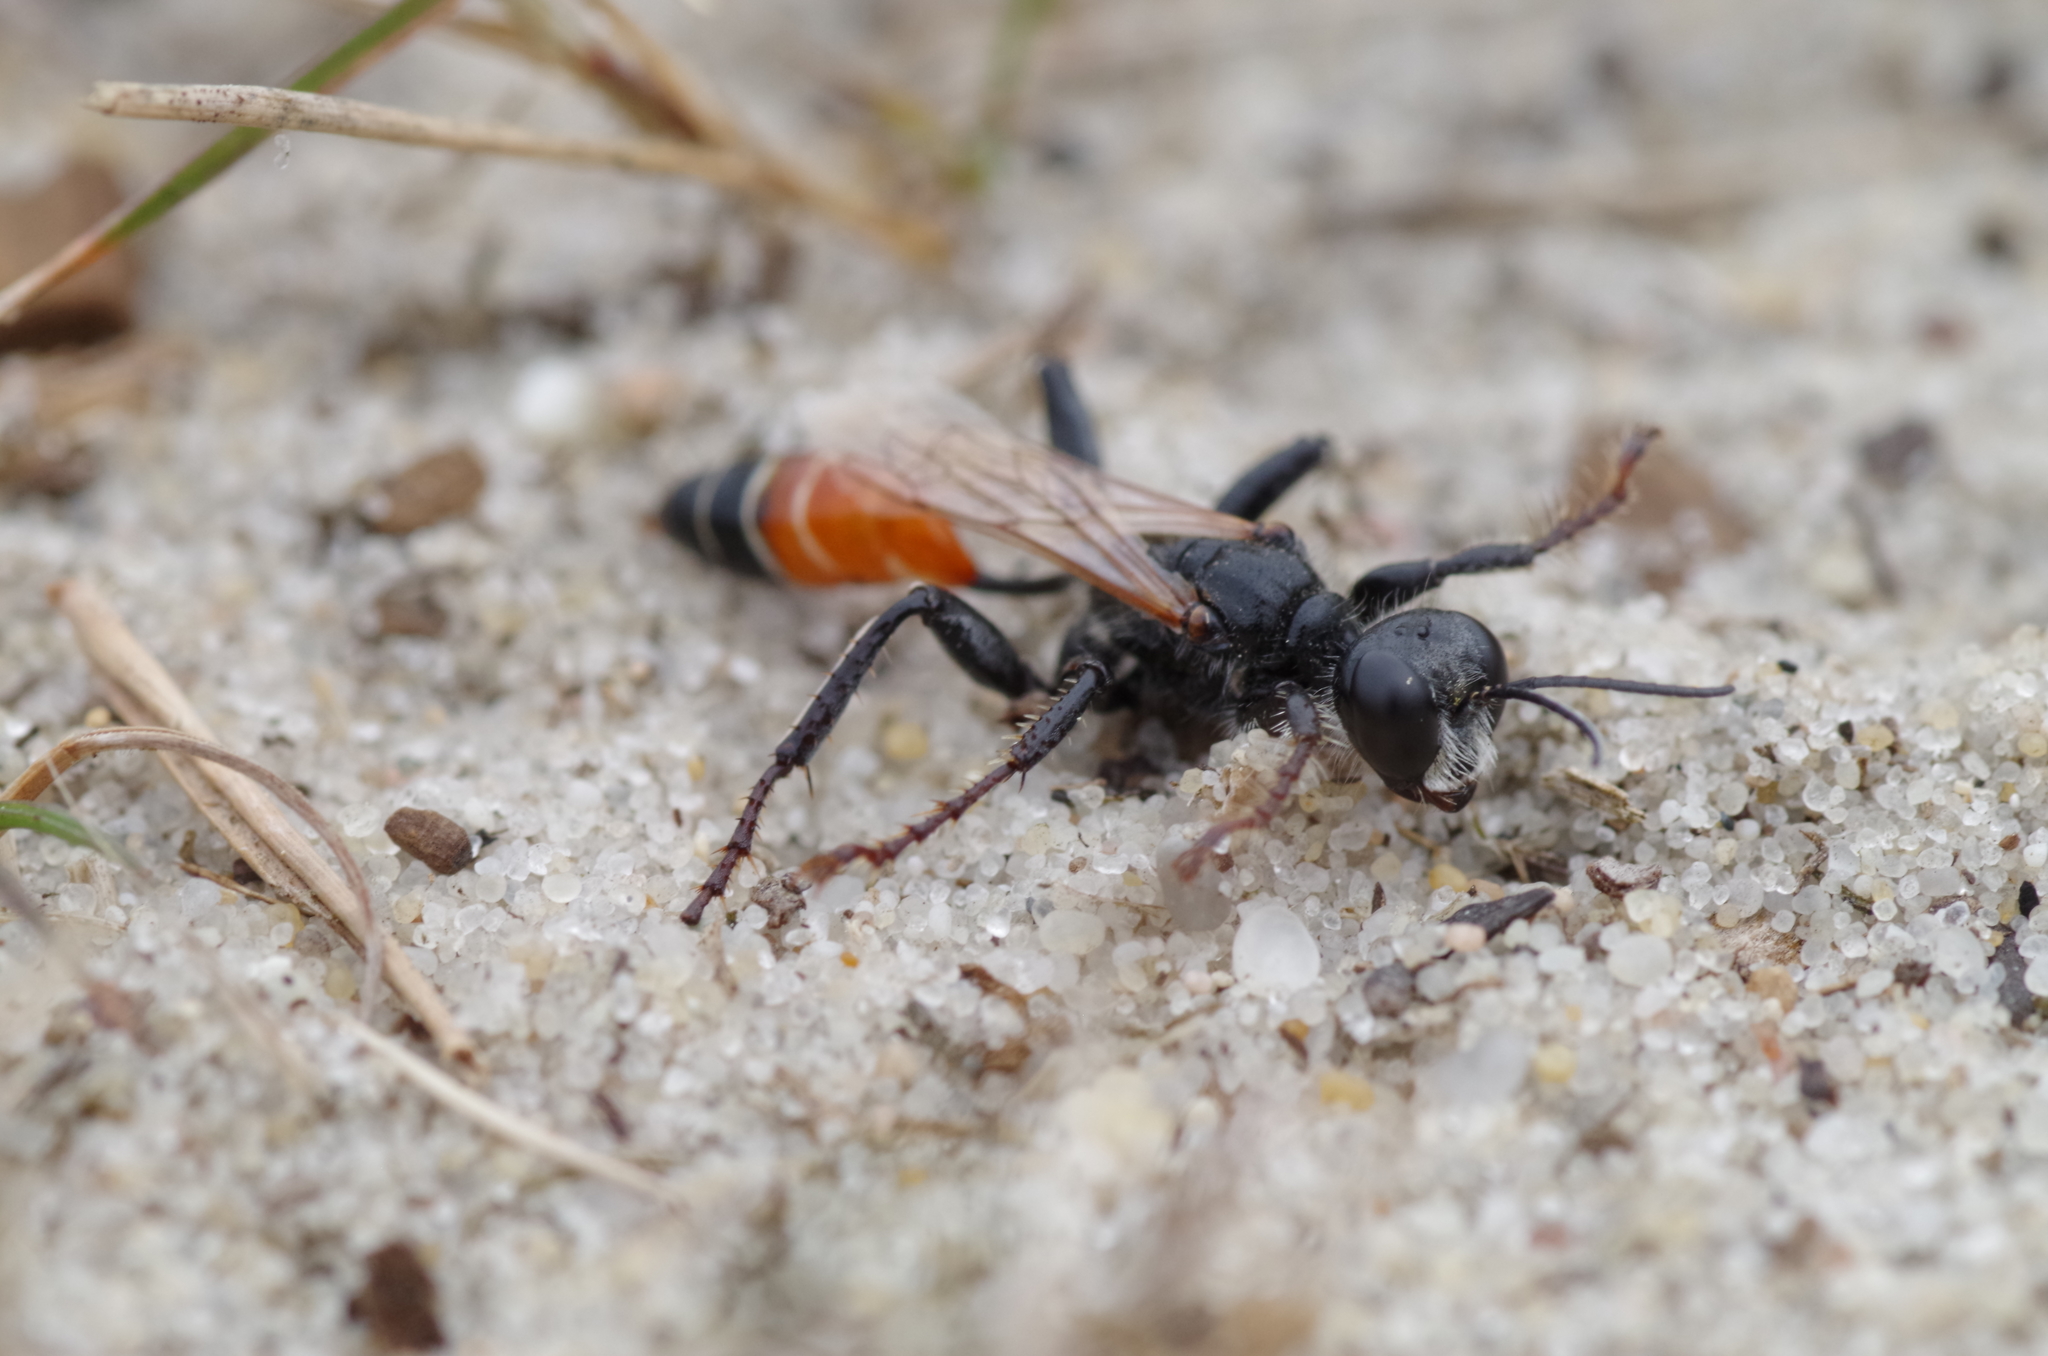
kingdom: Animalia
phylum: Arthropoda
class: Insecta
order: Hymenoptera
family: Sphecidae
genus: Prionyx
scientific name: Prionyx kirbii
